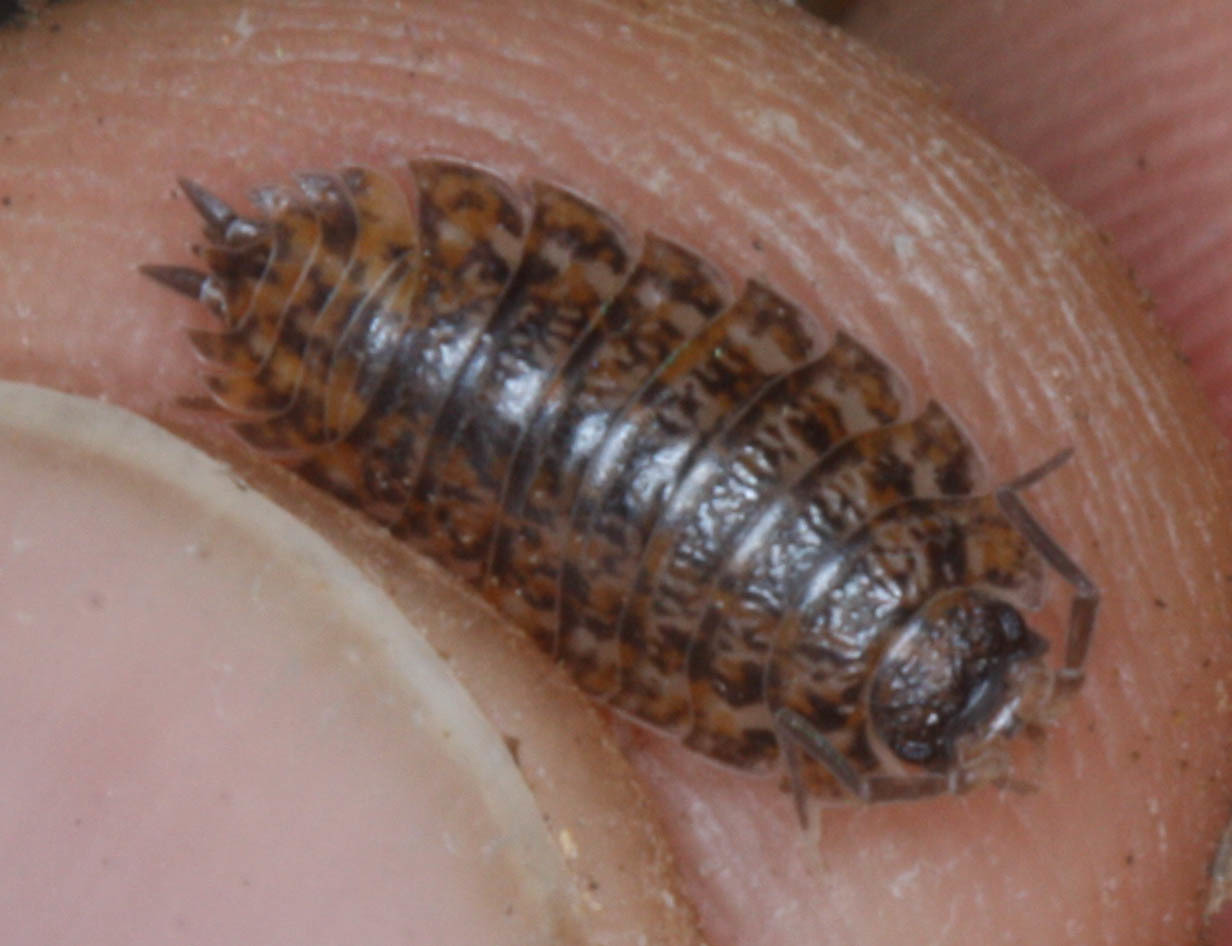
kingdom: Animalia
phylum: Arthropoda
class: Malacostraca
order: Isopoda
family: Trachelipodidae
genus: Trachelipus
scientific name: Trachelipus rathkii
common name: Isopod
